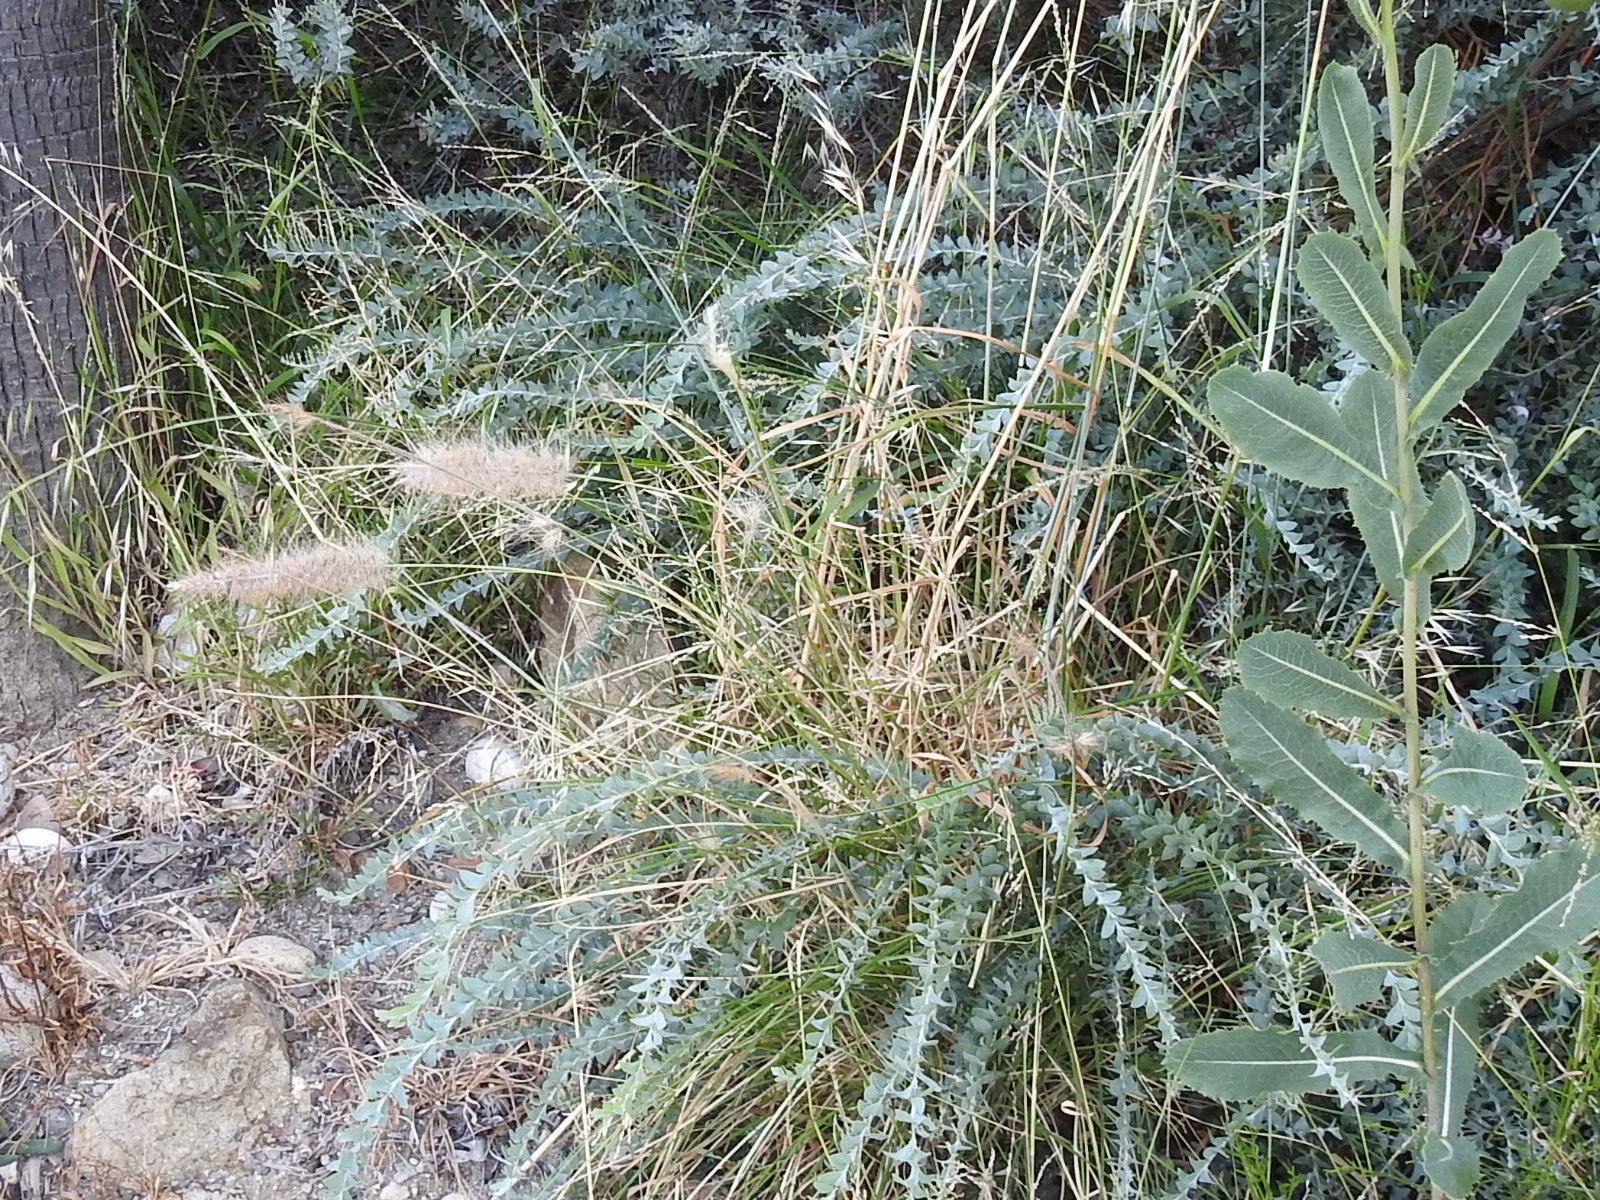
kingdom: Plantae
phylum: Tracheophyta
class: Liliopsida
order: Poales
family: Poaceae
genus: Cenchrus
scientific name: Cenchrus setaceus
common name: Crimson fountaingrass
